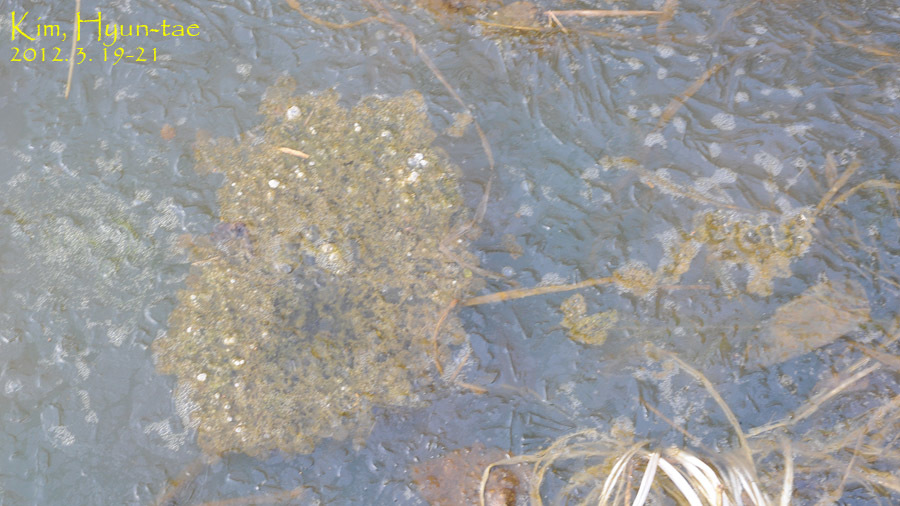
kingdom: Animalia
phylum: Chordata
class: Amphibia
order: Anura
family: Ranidae
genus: Rana
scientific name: Rana uenoi
